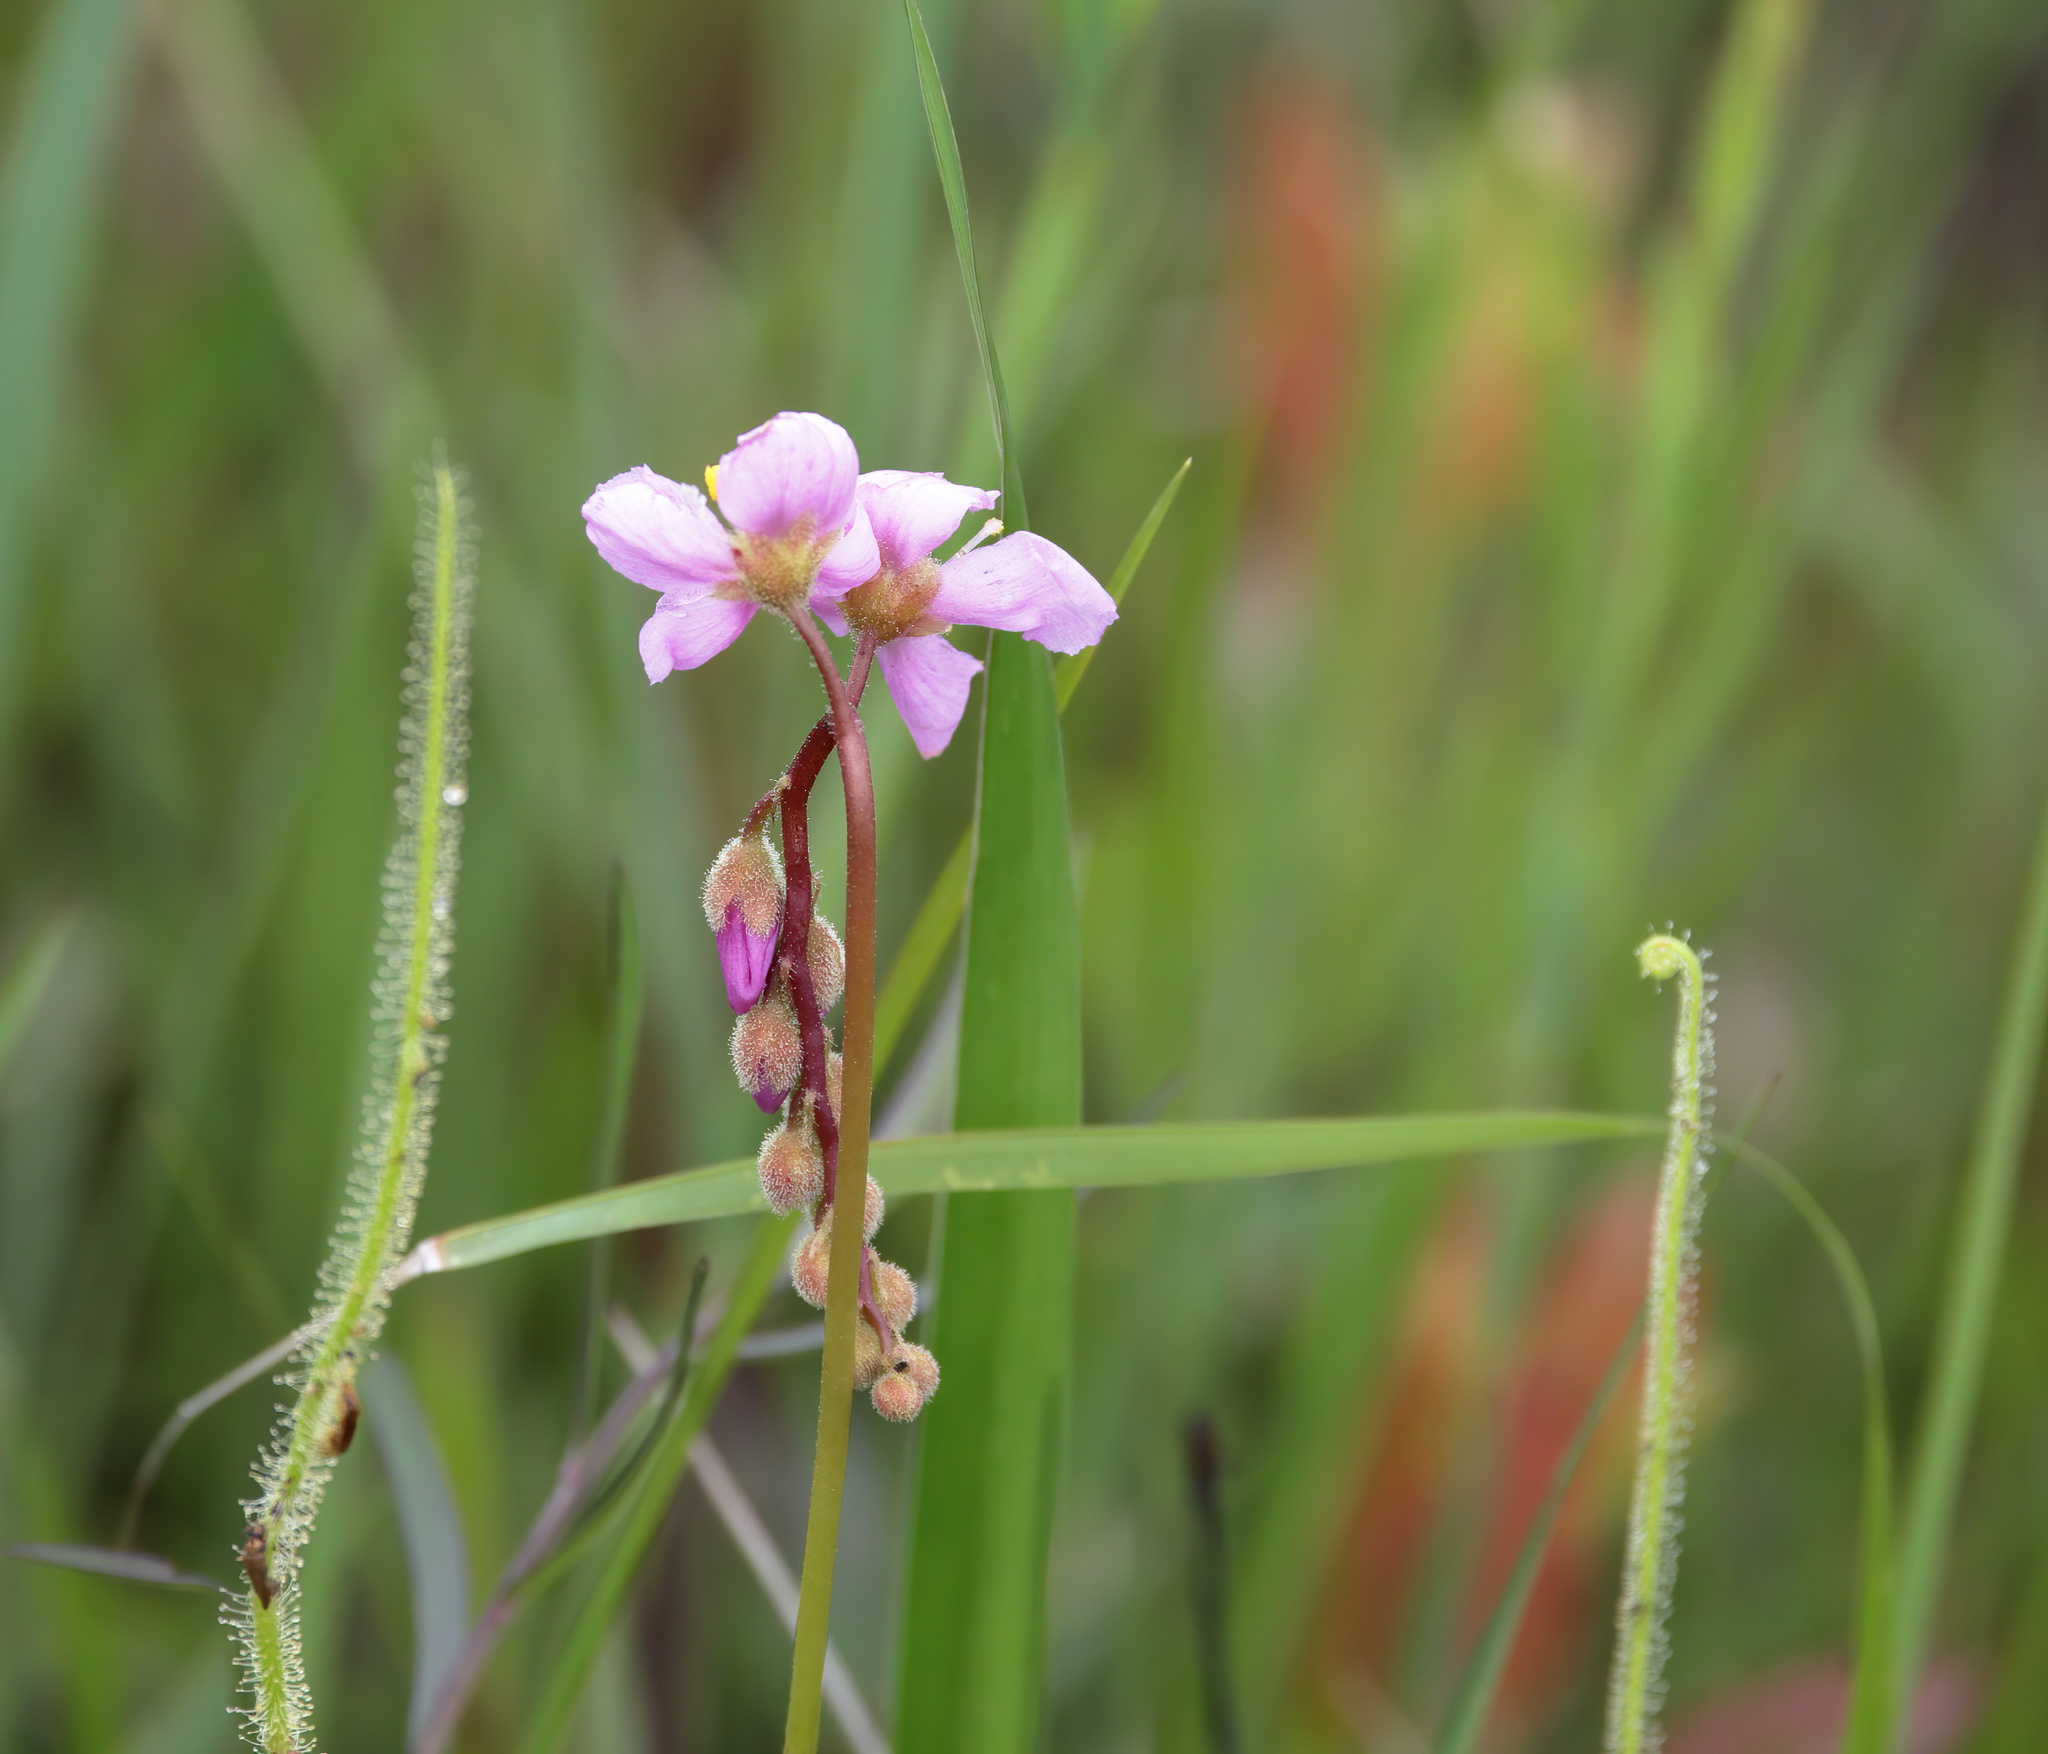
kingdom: Plantae
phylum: Tracheophyta
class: Magnoliopsida
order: Caryophyllales
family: Droseraceae
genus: Drosera
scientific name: Drosera filiformis
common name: Dew-thread
